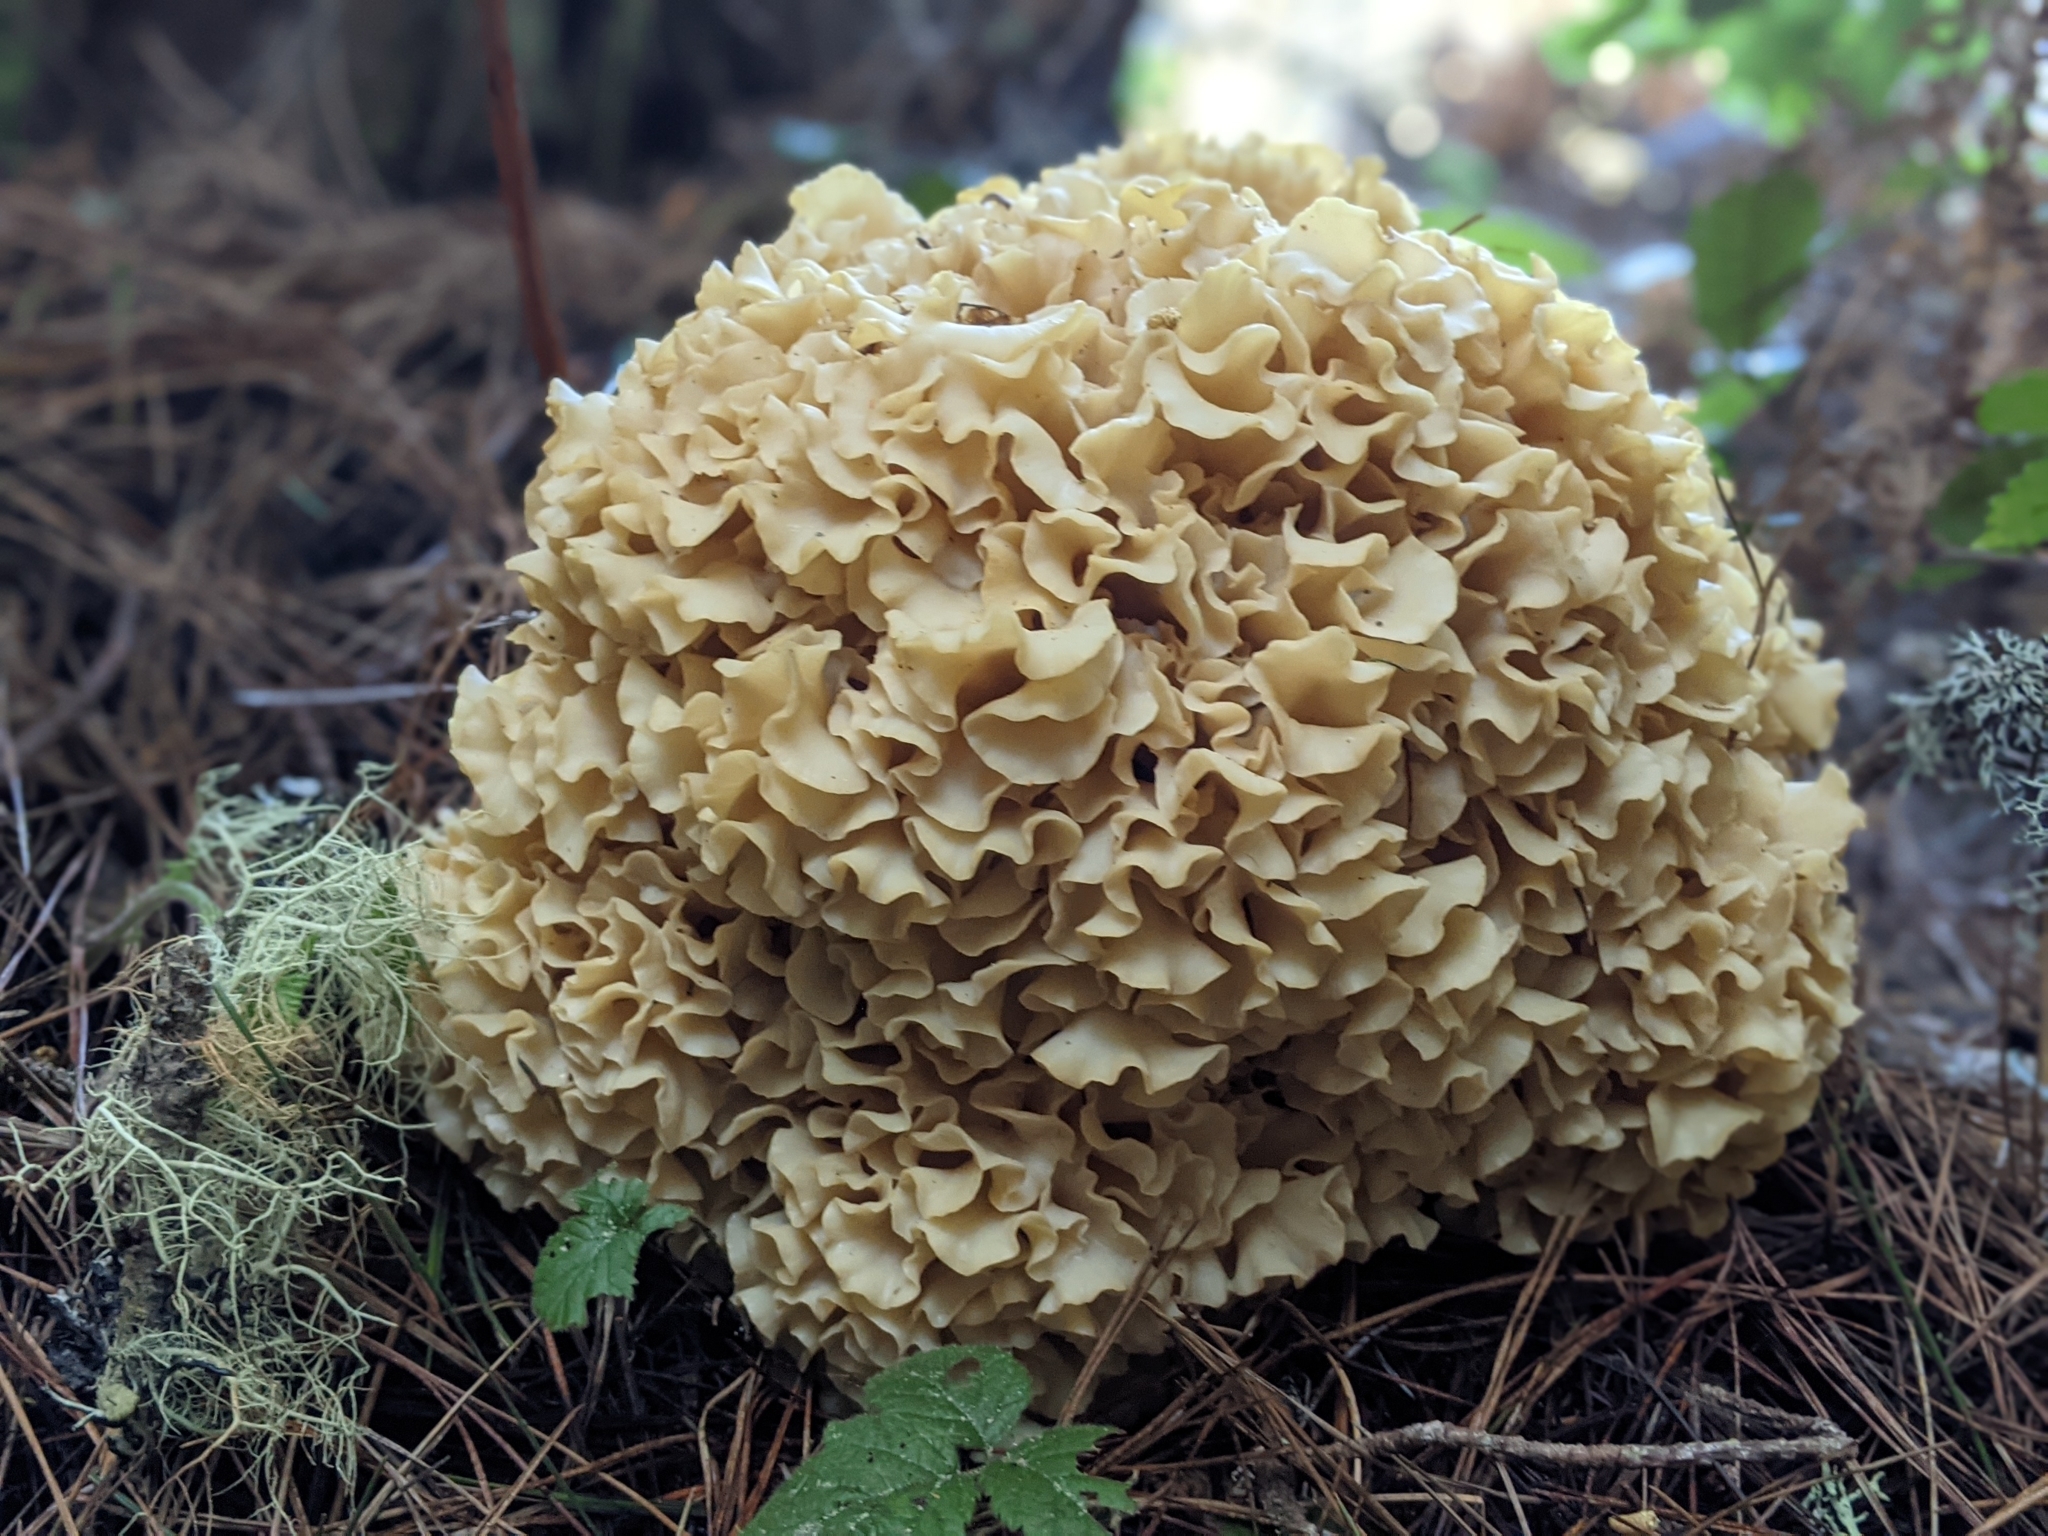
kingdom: Fungi
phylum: Basidiomycota
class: Agaricomycetes
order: Polyporales
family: Sparassidaceae
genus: Sparassis
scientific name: Sparassis radicata
